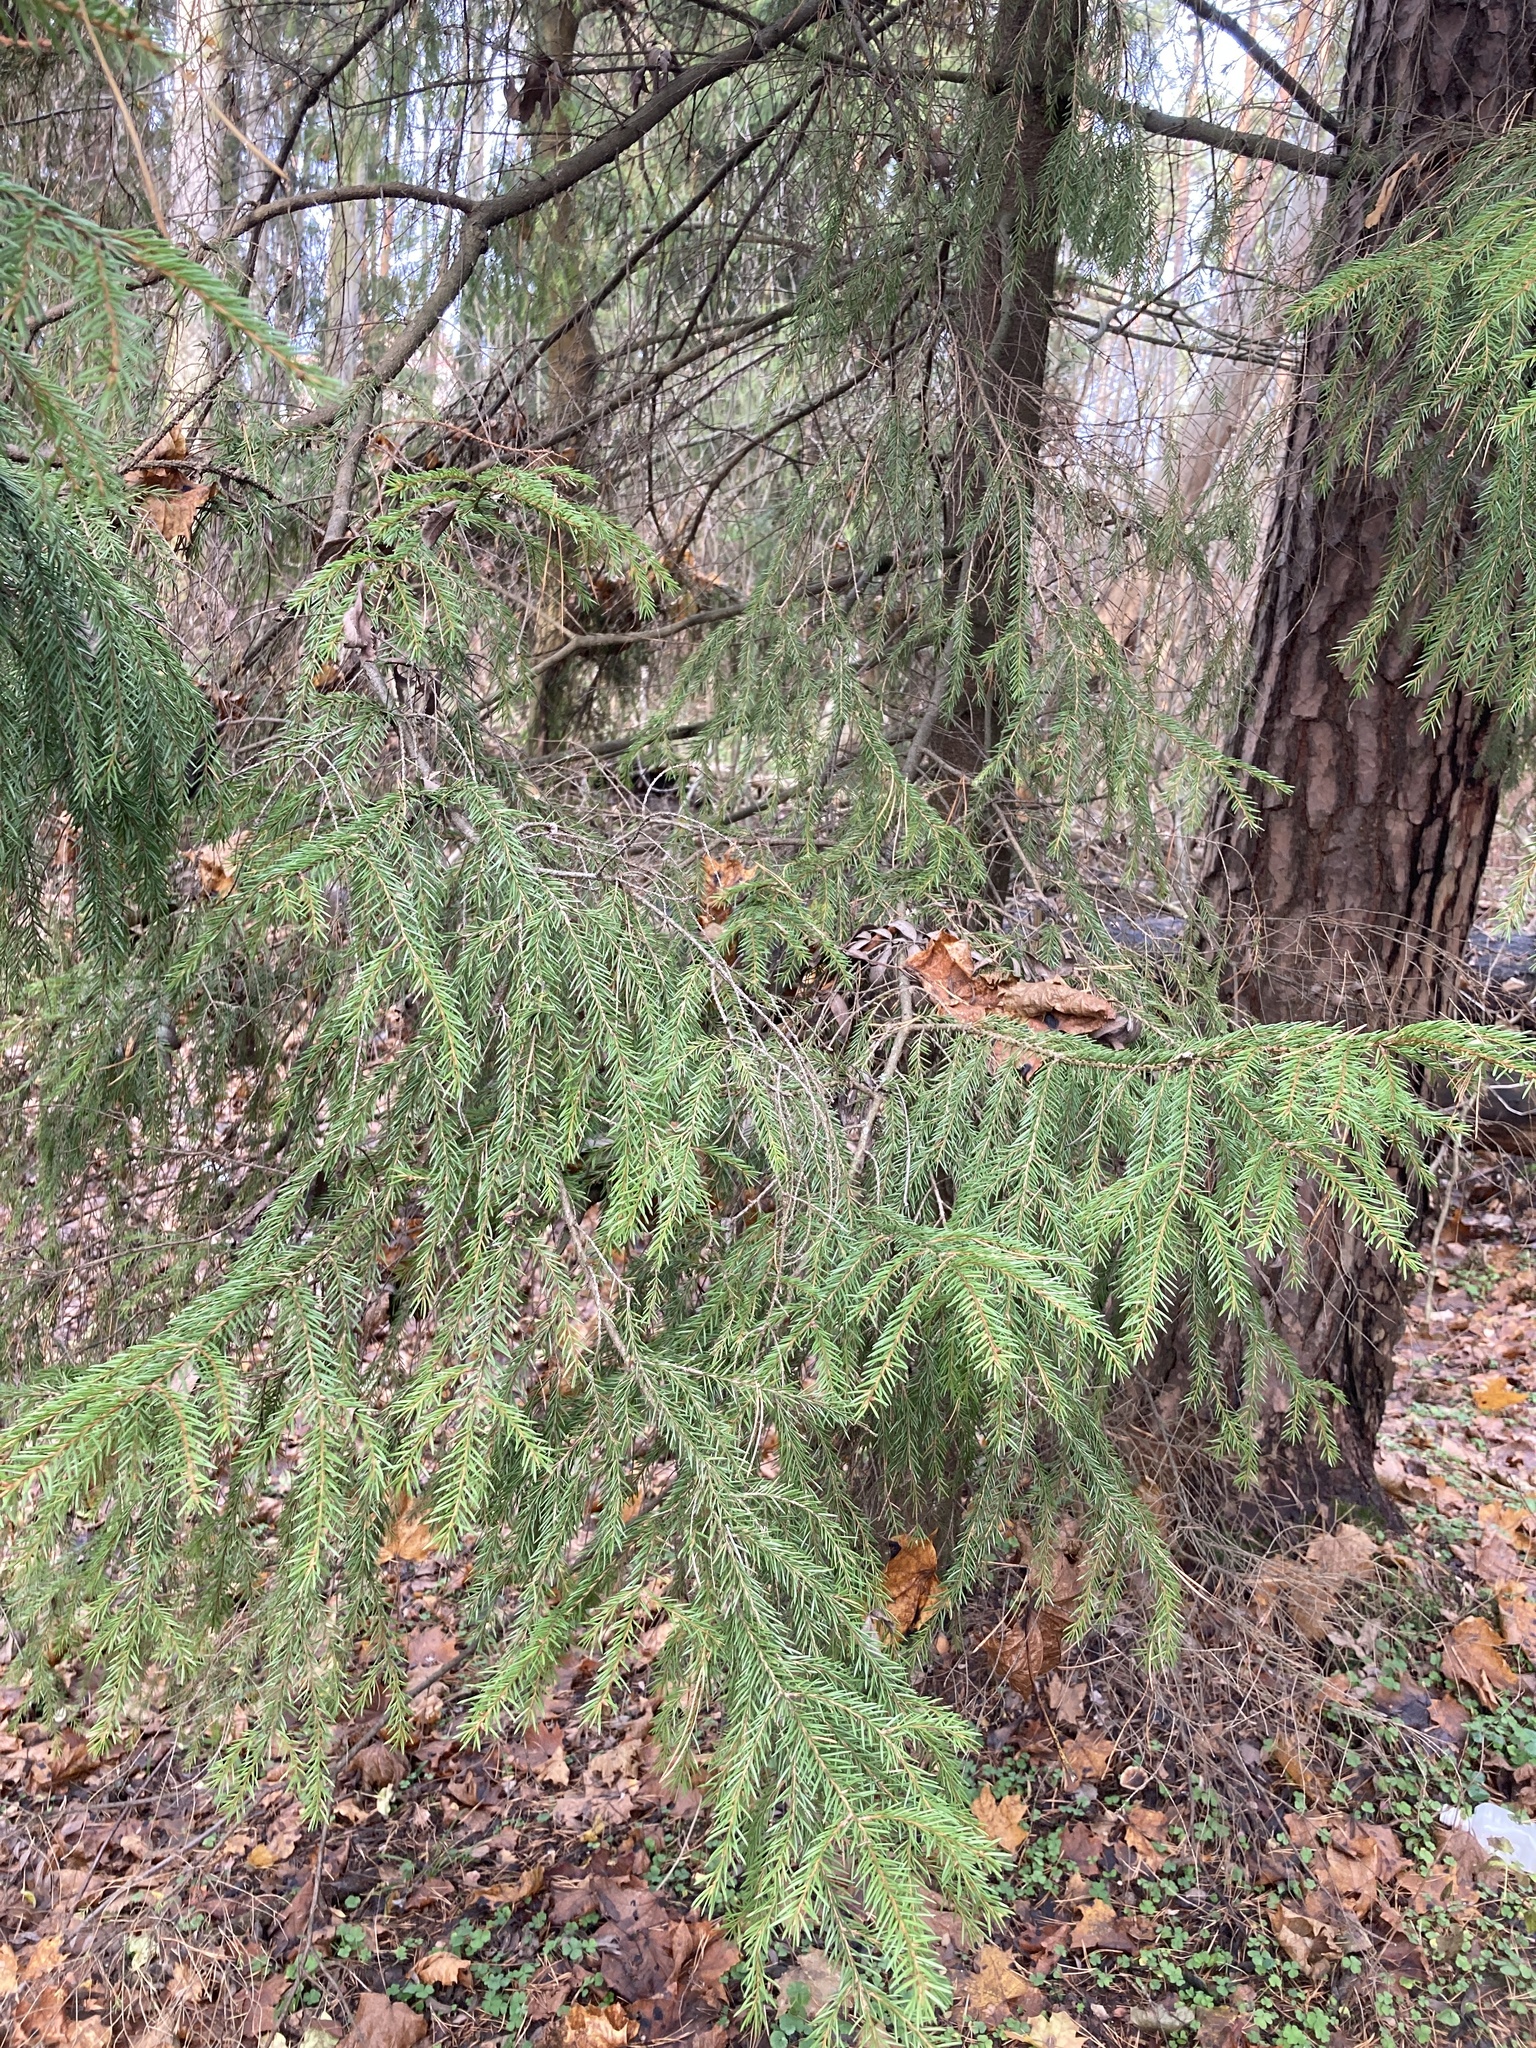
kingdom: Plantae
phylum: Tracheophyta
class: Pinopsida
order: Pinales
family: Pinaceae
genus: Picea
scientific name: Picea abies
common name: Norway spruce
